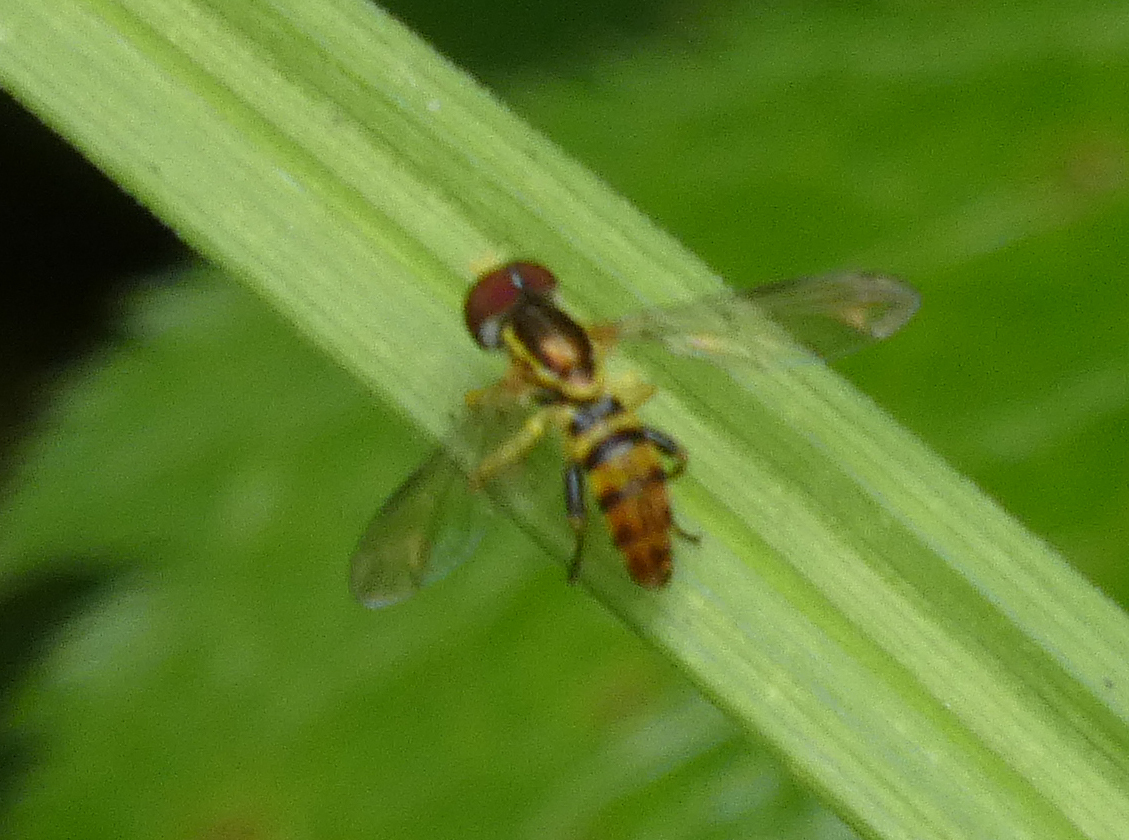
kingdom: Animalia
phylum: Arthropoda
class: Insecta
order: Diptera
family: Syrphidae
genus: Toxomerus
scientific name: Toxomerus geminatus
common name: Eastern calligrapher
